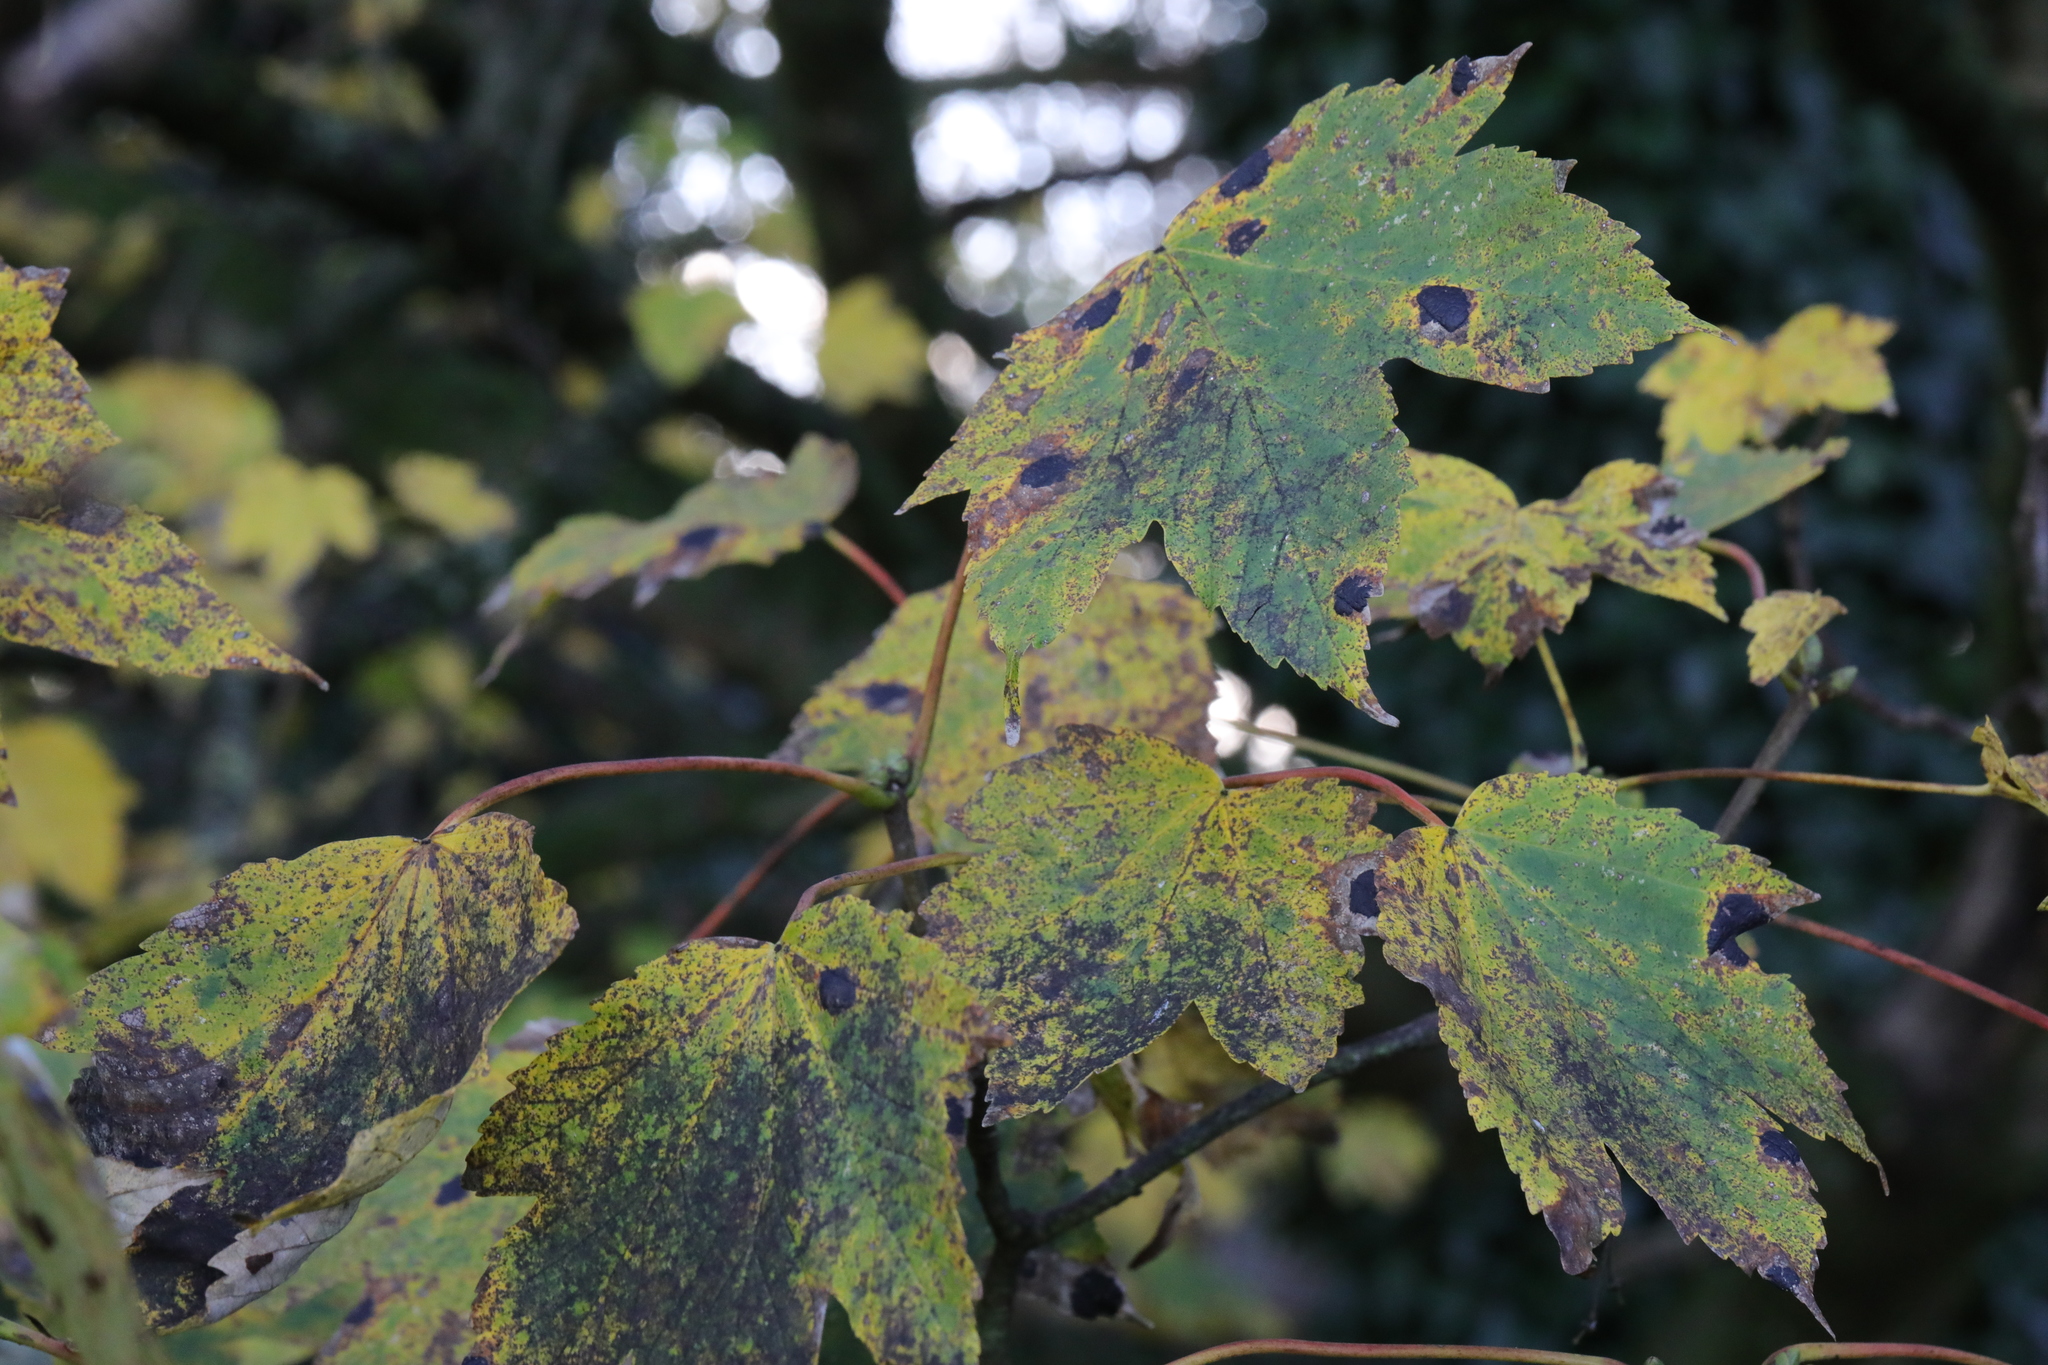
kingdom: Plantae
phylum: Tracheophyta
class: Magnoliopsida
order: Sapindales
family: Sapindaceae
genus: Acer
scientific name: Acer pseudoplatanus
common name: Sycamore
